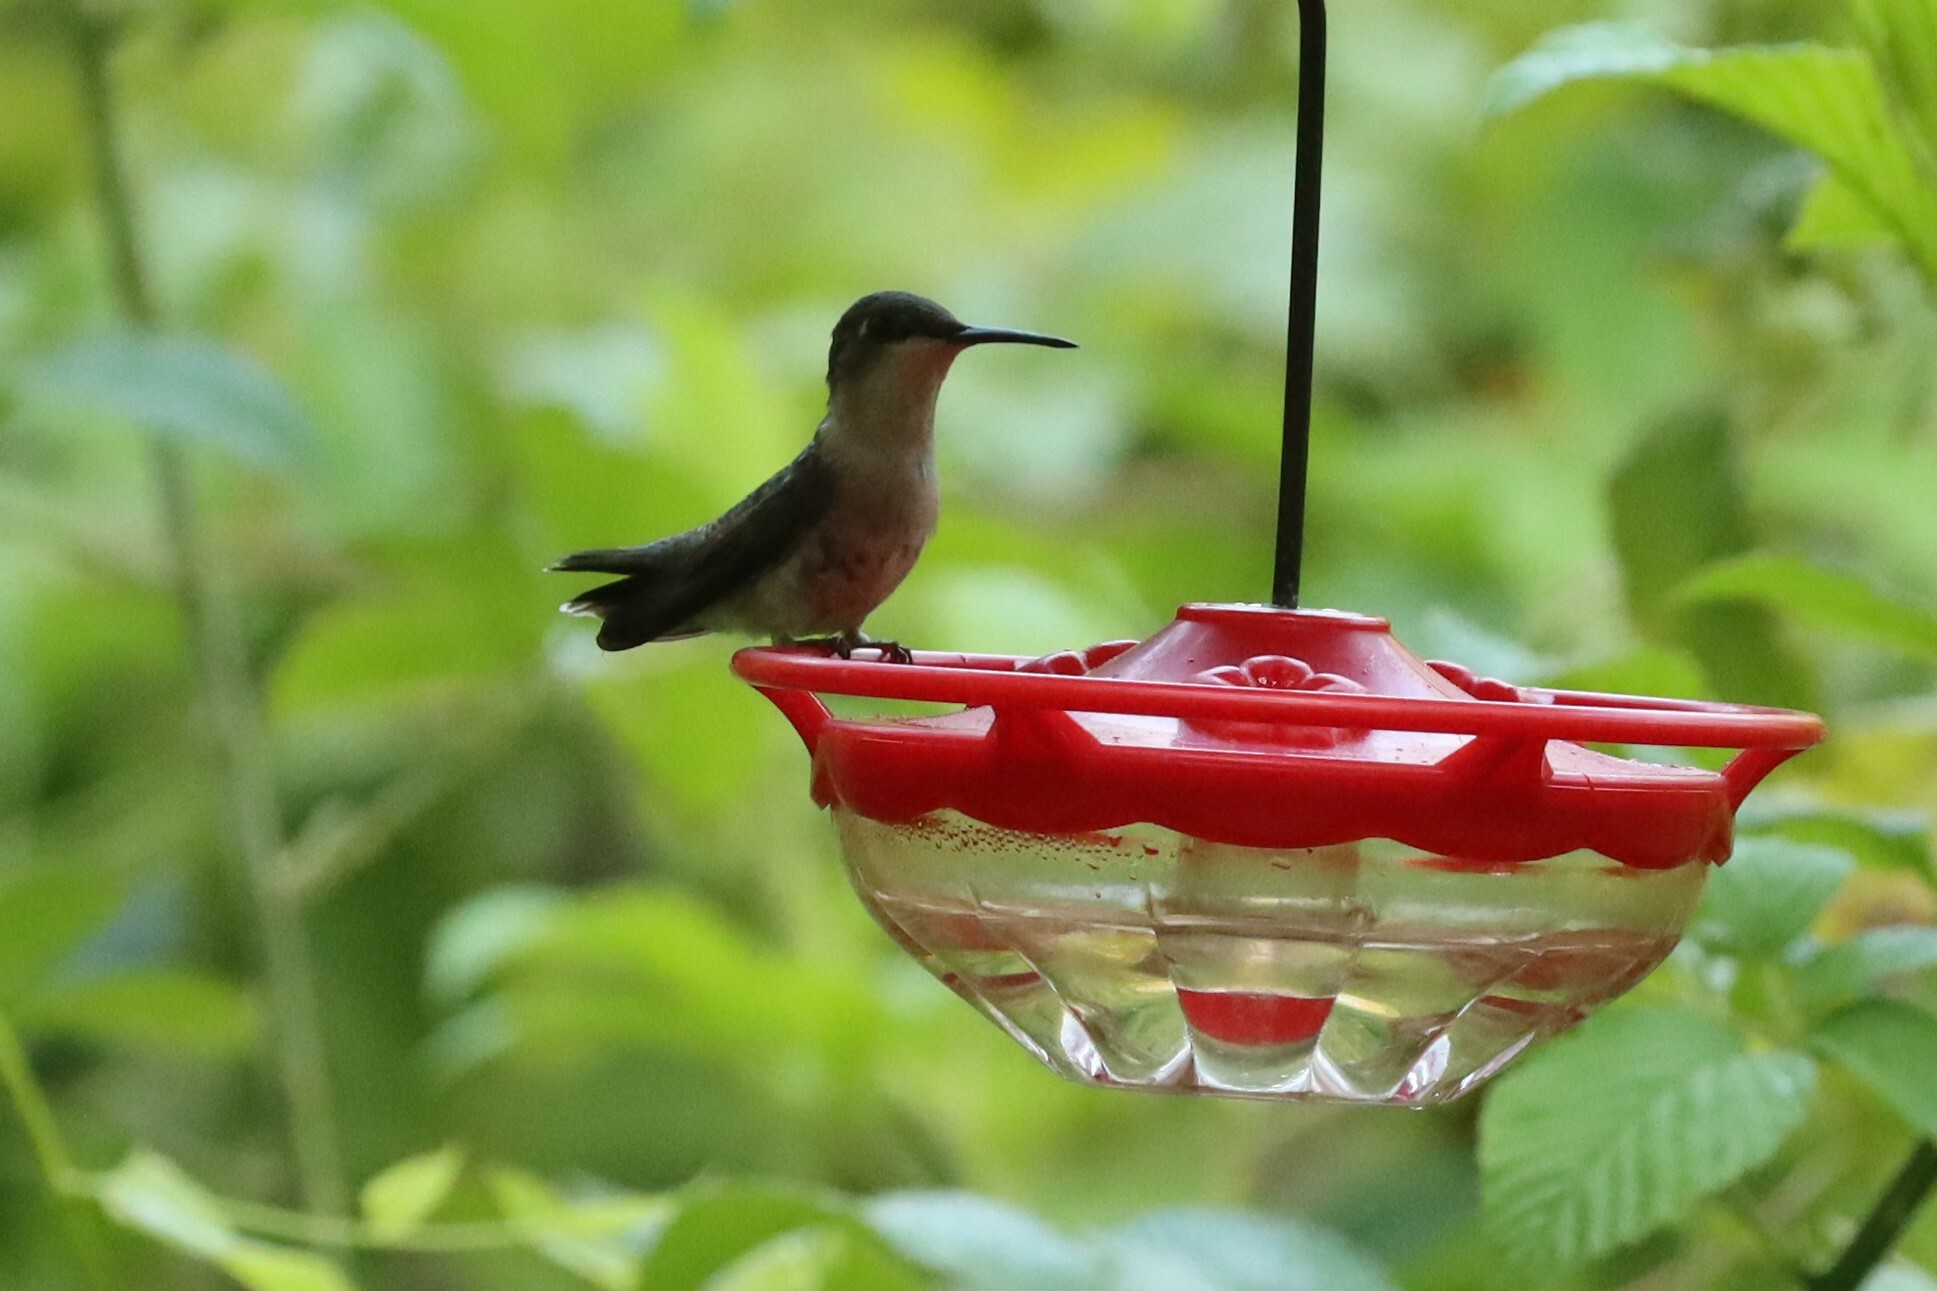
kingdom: Animalia
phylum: Chordata
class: Aves
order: Apodiformes
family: Trochilidae
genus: Archilochus
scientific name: Archilochus colubris
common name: Ruby-throated hummingbird
